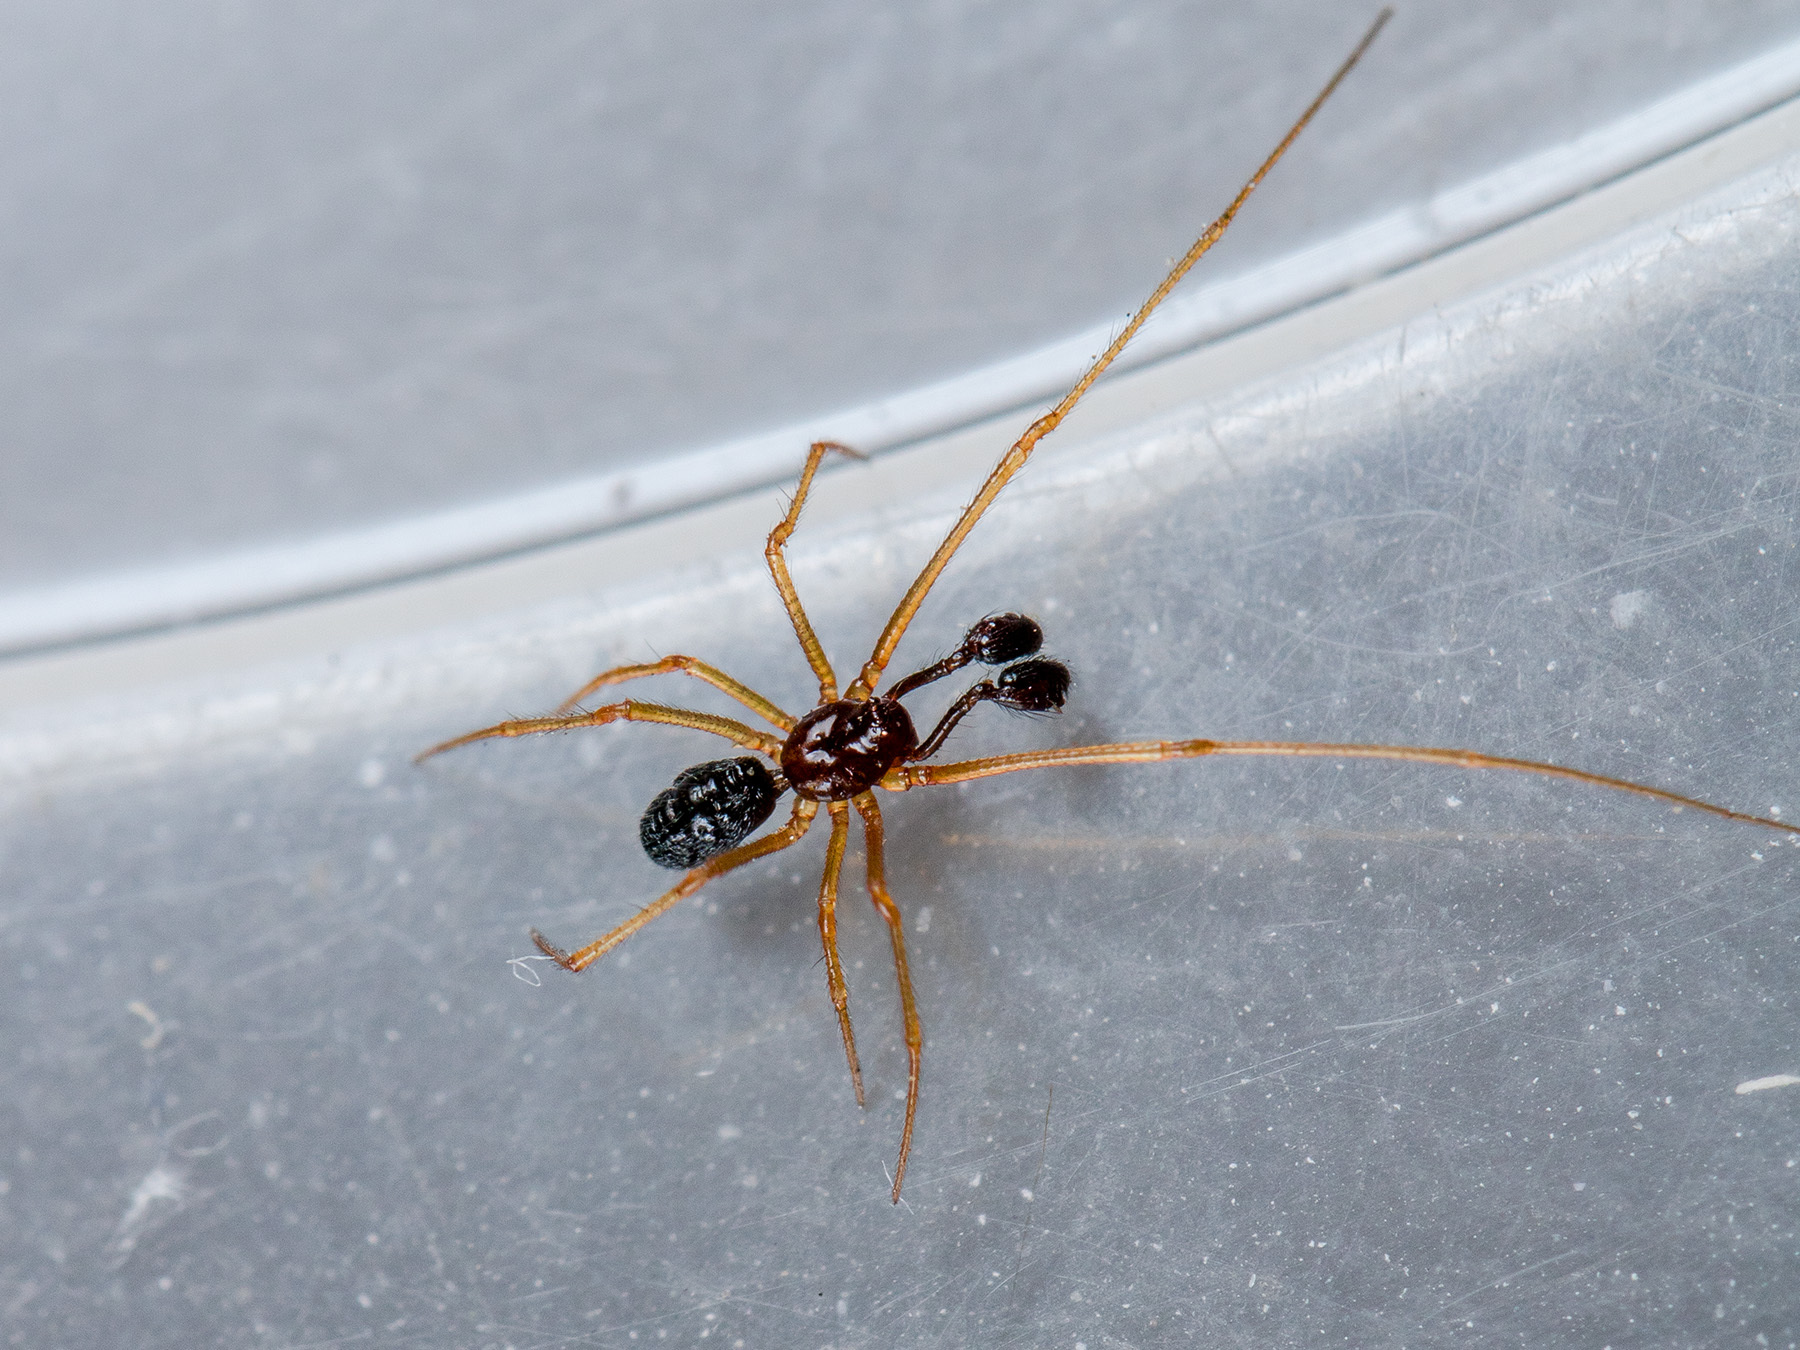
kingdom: Animalia
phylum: Arthropoda
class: Arachnida
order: Araneae
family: Theridiidae
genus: Neottiura
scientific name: Neottiura bimaculata
